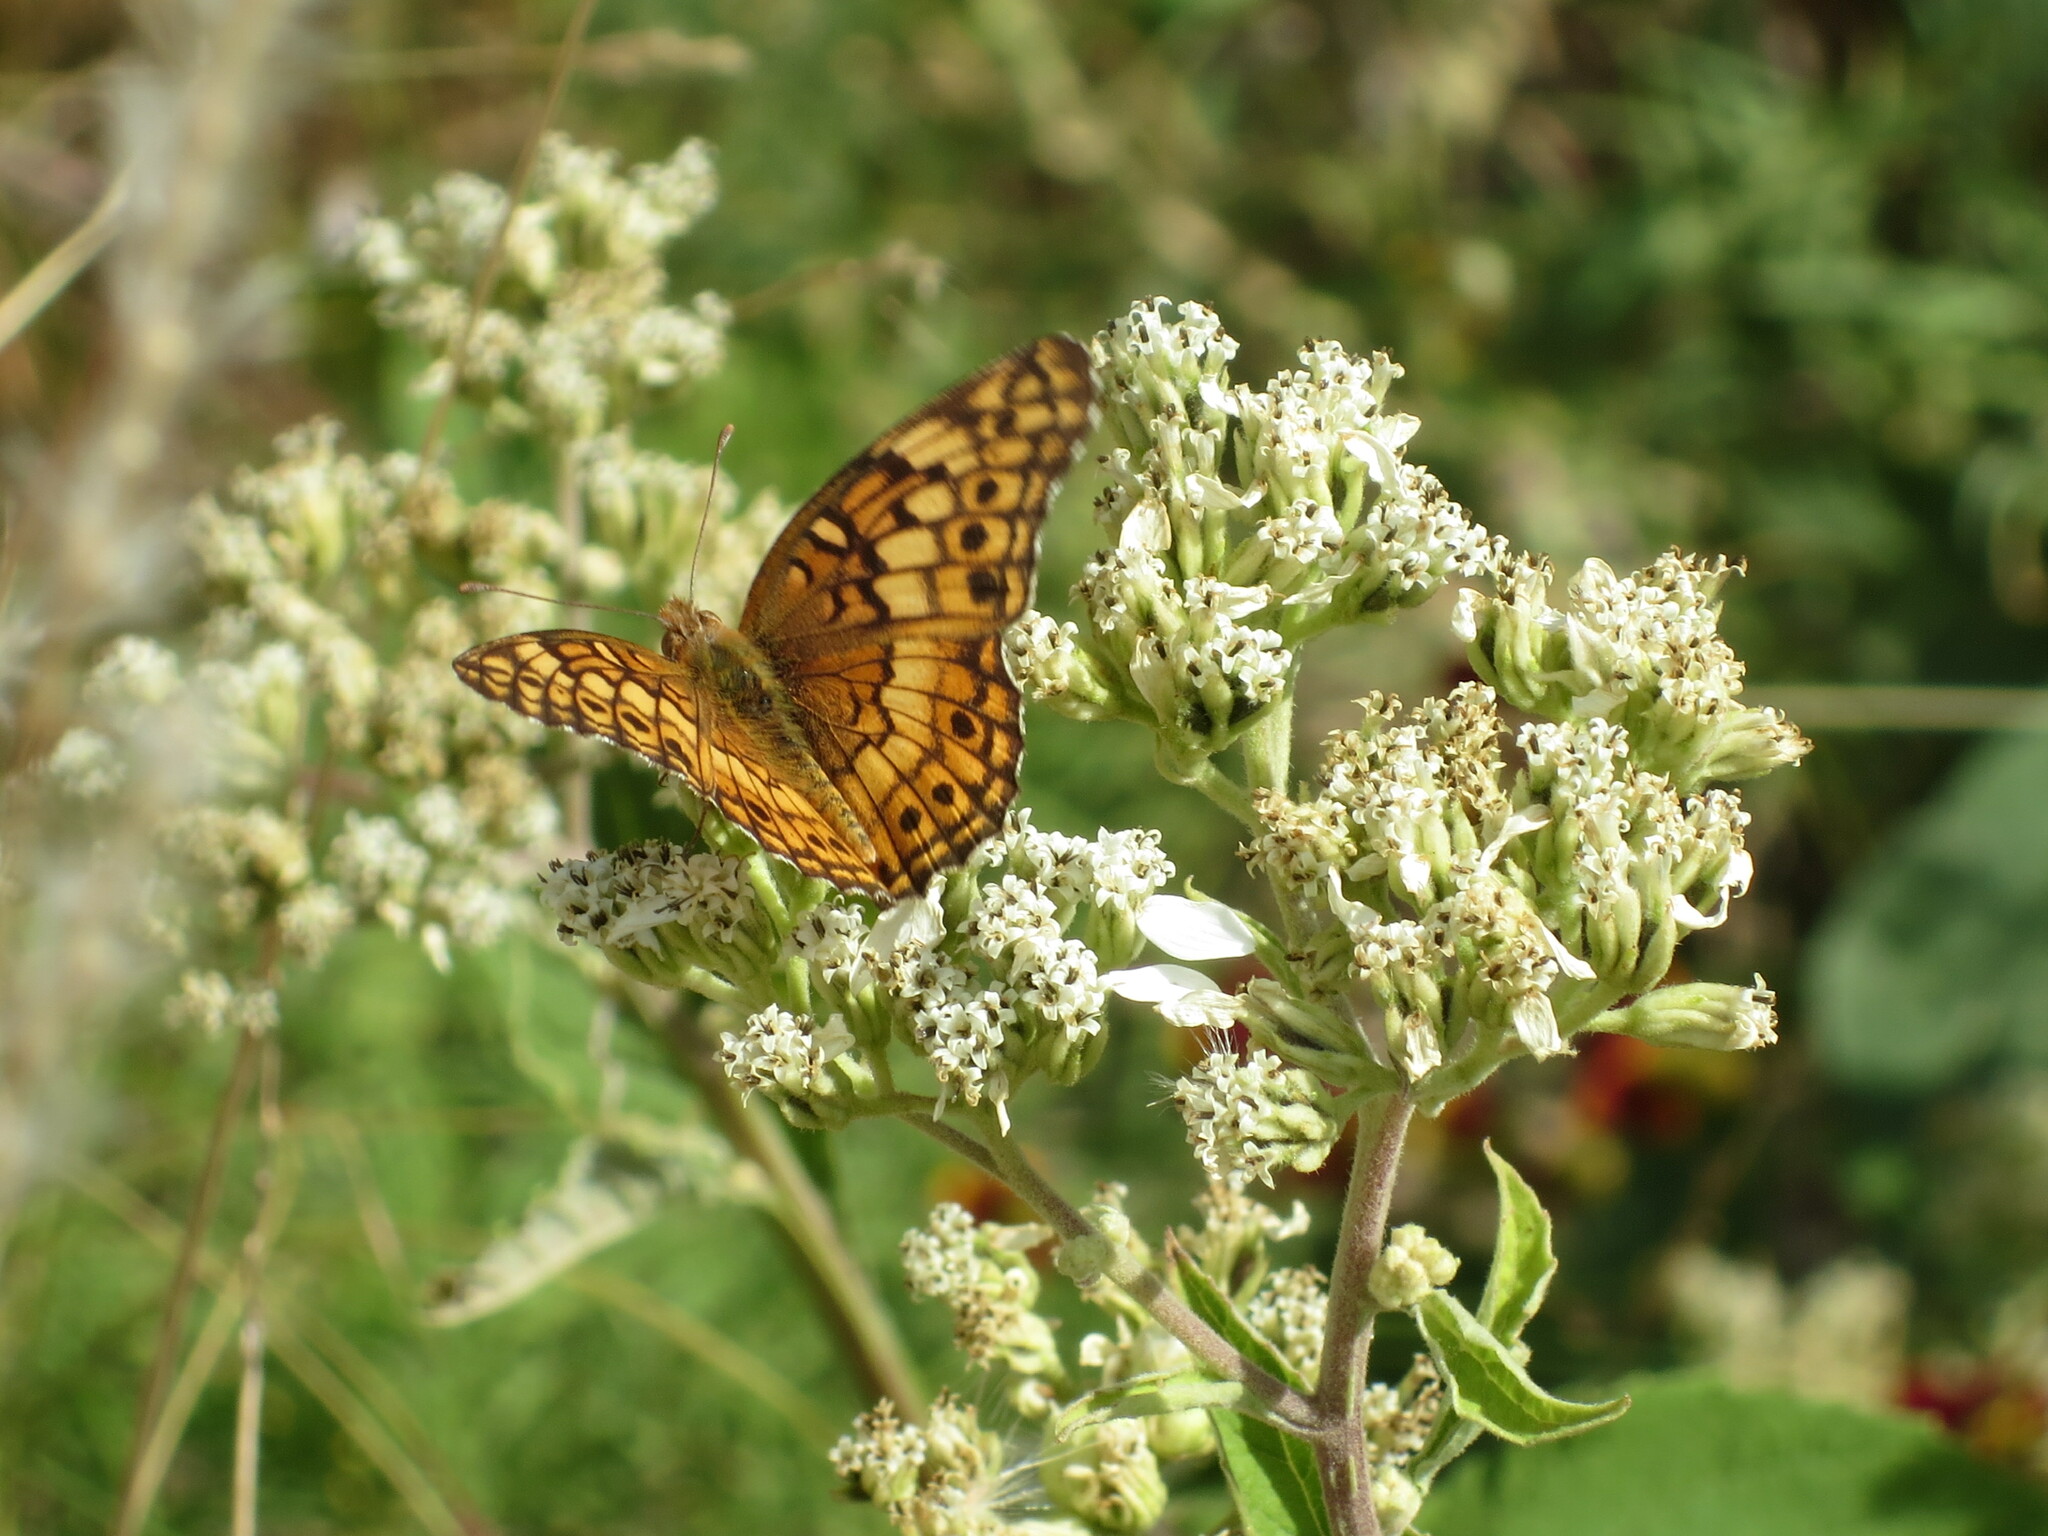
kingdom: Animalia
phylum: Arthropoda
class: Insecta
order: Lepidoptera
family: Nymphalidae
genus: Euptoieta
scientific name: Euptoieta claudia
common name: Variegated fritillary
